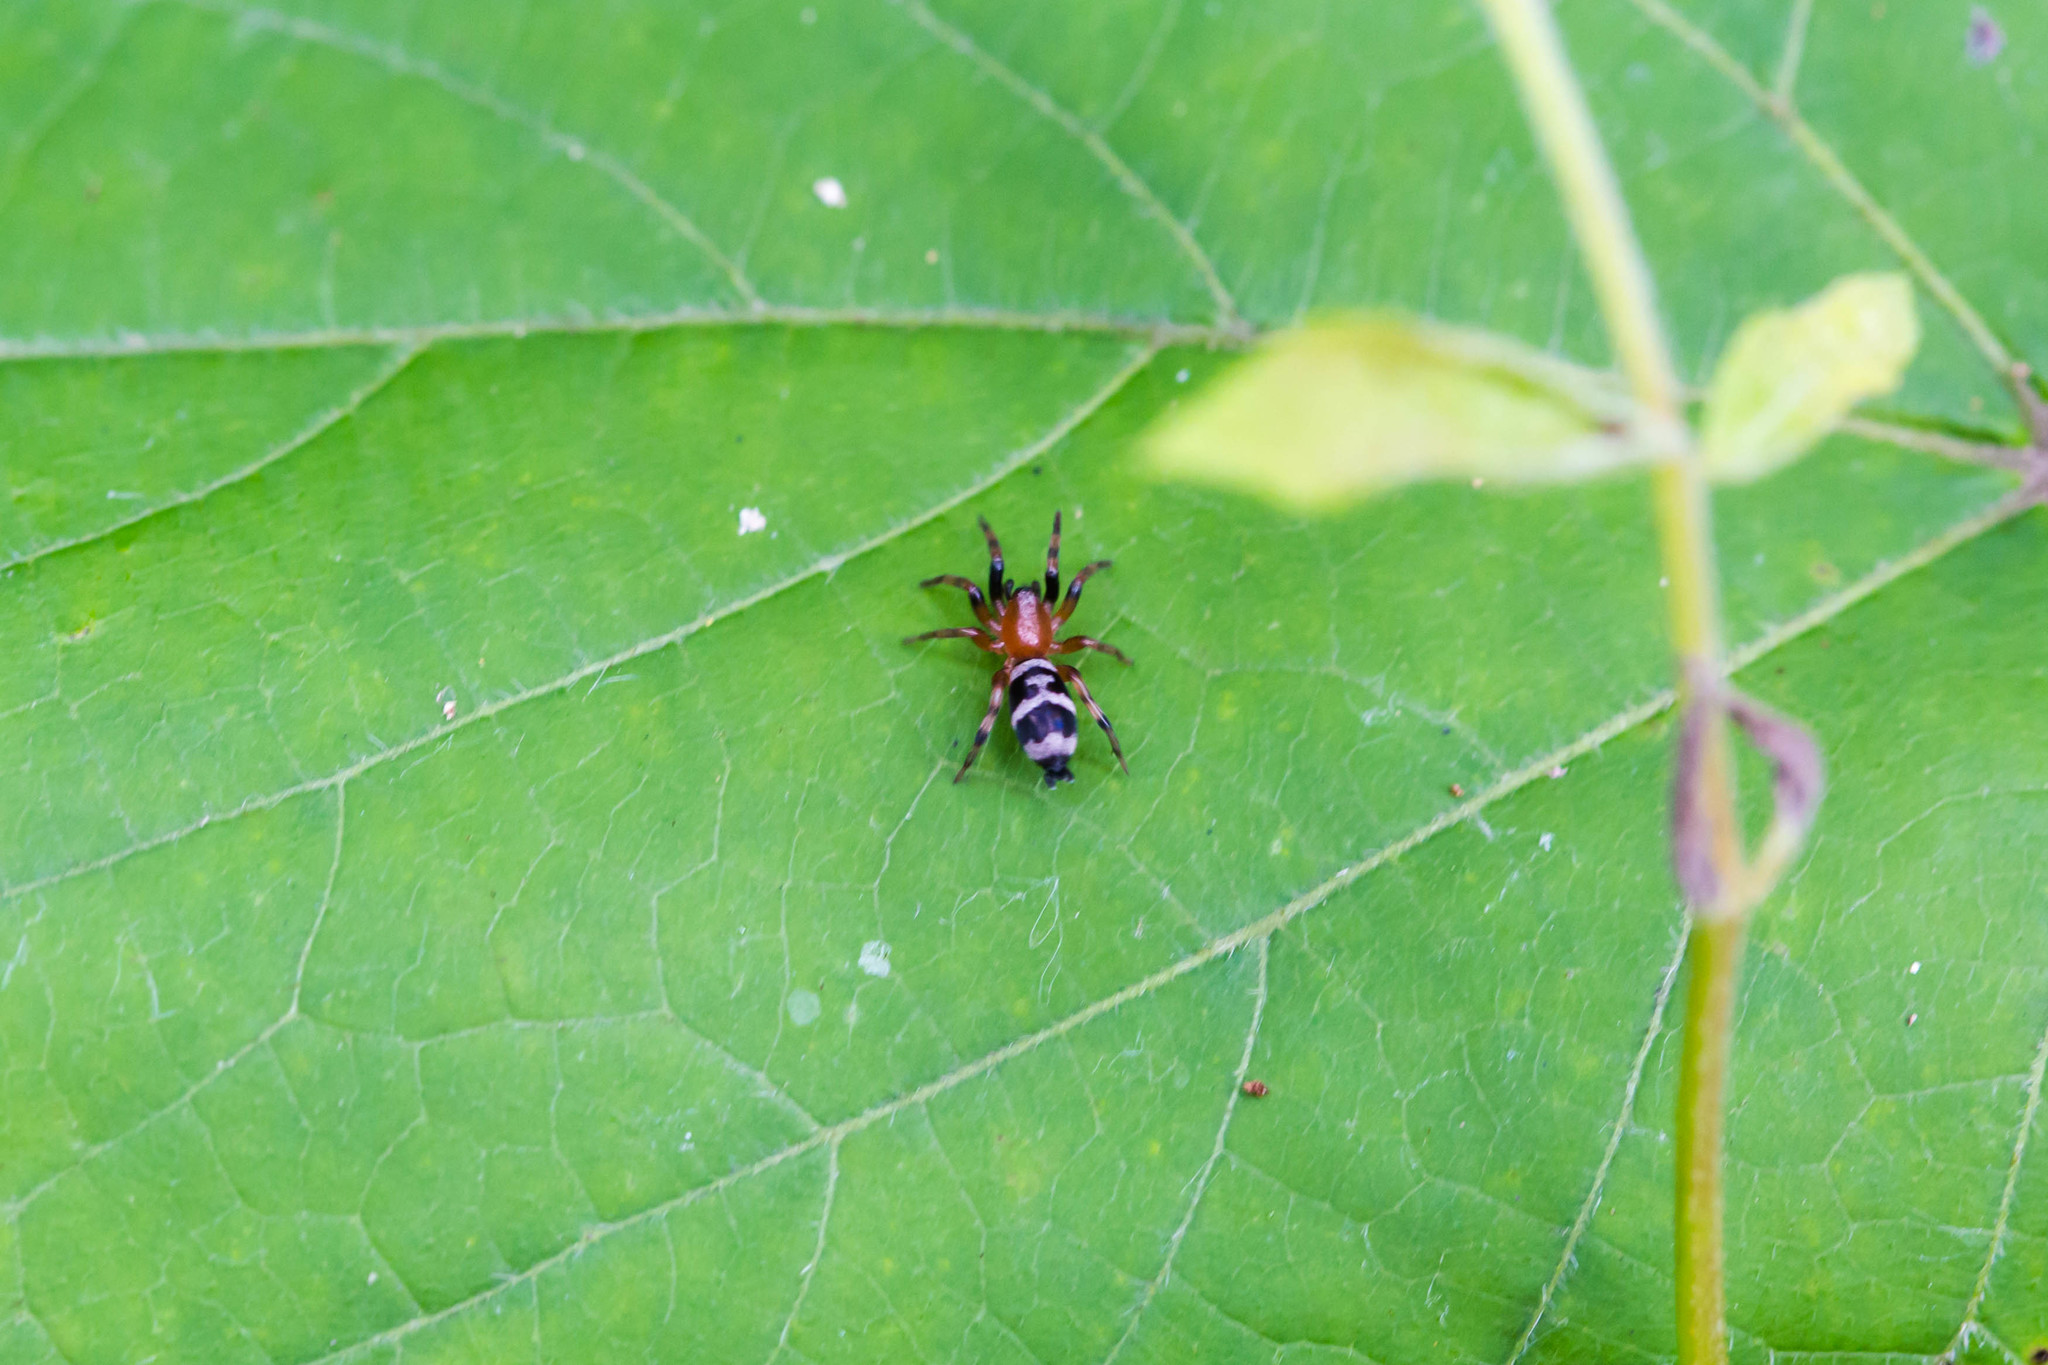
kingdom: Animalia
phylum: Arthropoda
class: Arachnida
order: Araneae
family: Gnaphosidae
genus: Sergiolus
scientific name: Sergiolus capulatus
